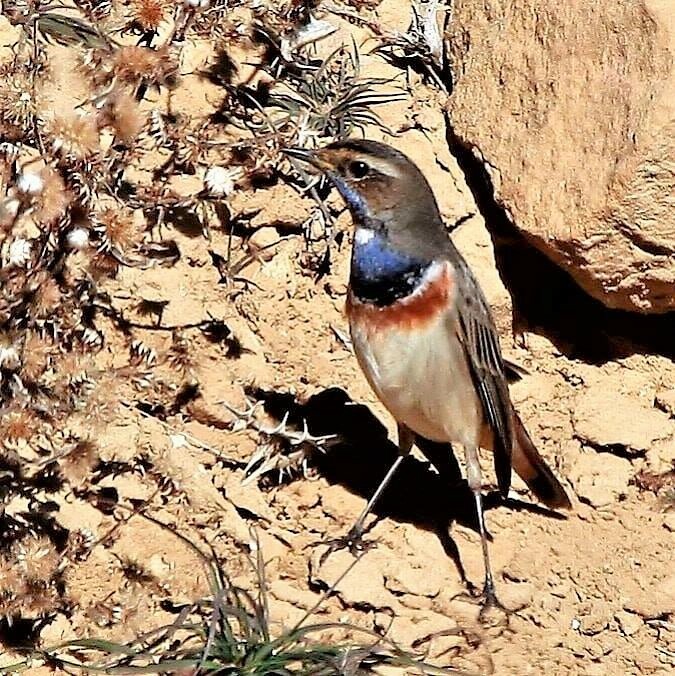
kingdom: Animalia
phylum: Chordata
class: Aves
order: Passeriformes
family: Muscicapidae
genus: Luscinia
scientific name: Luscinia svecica
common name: Bluethroat
